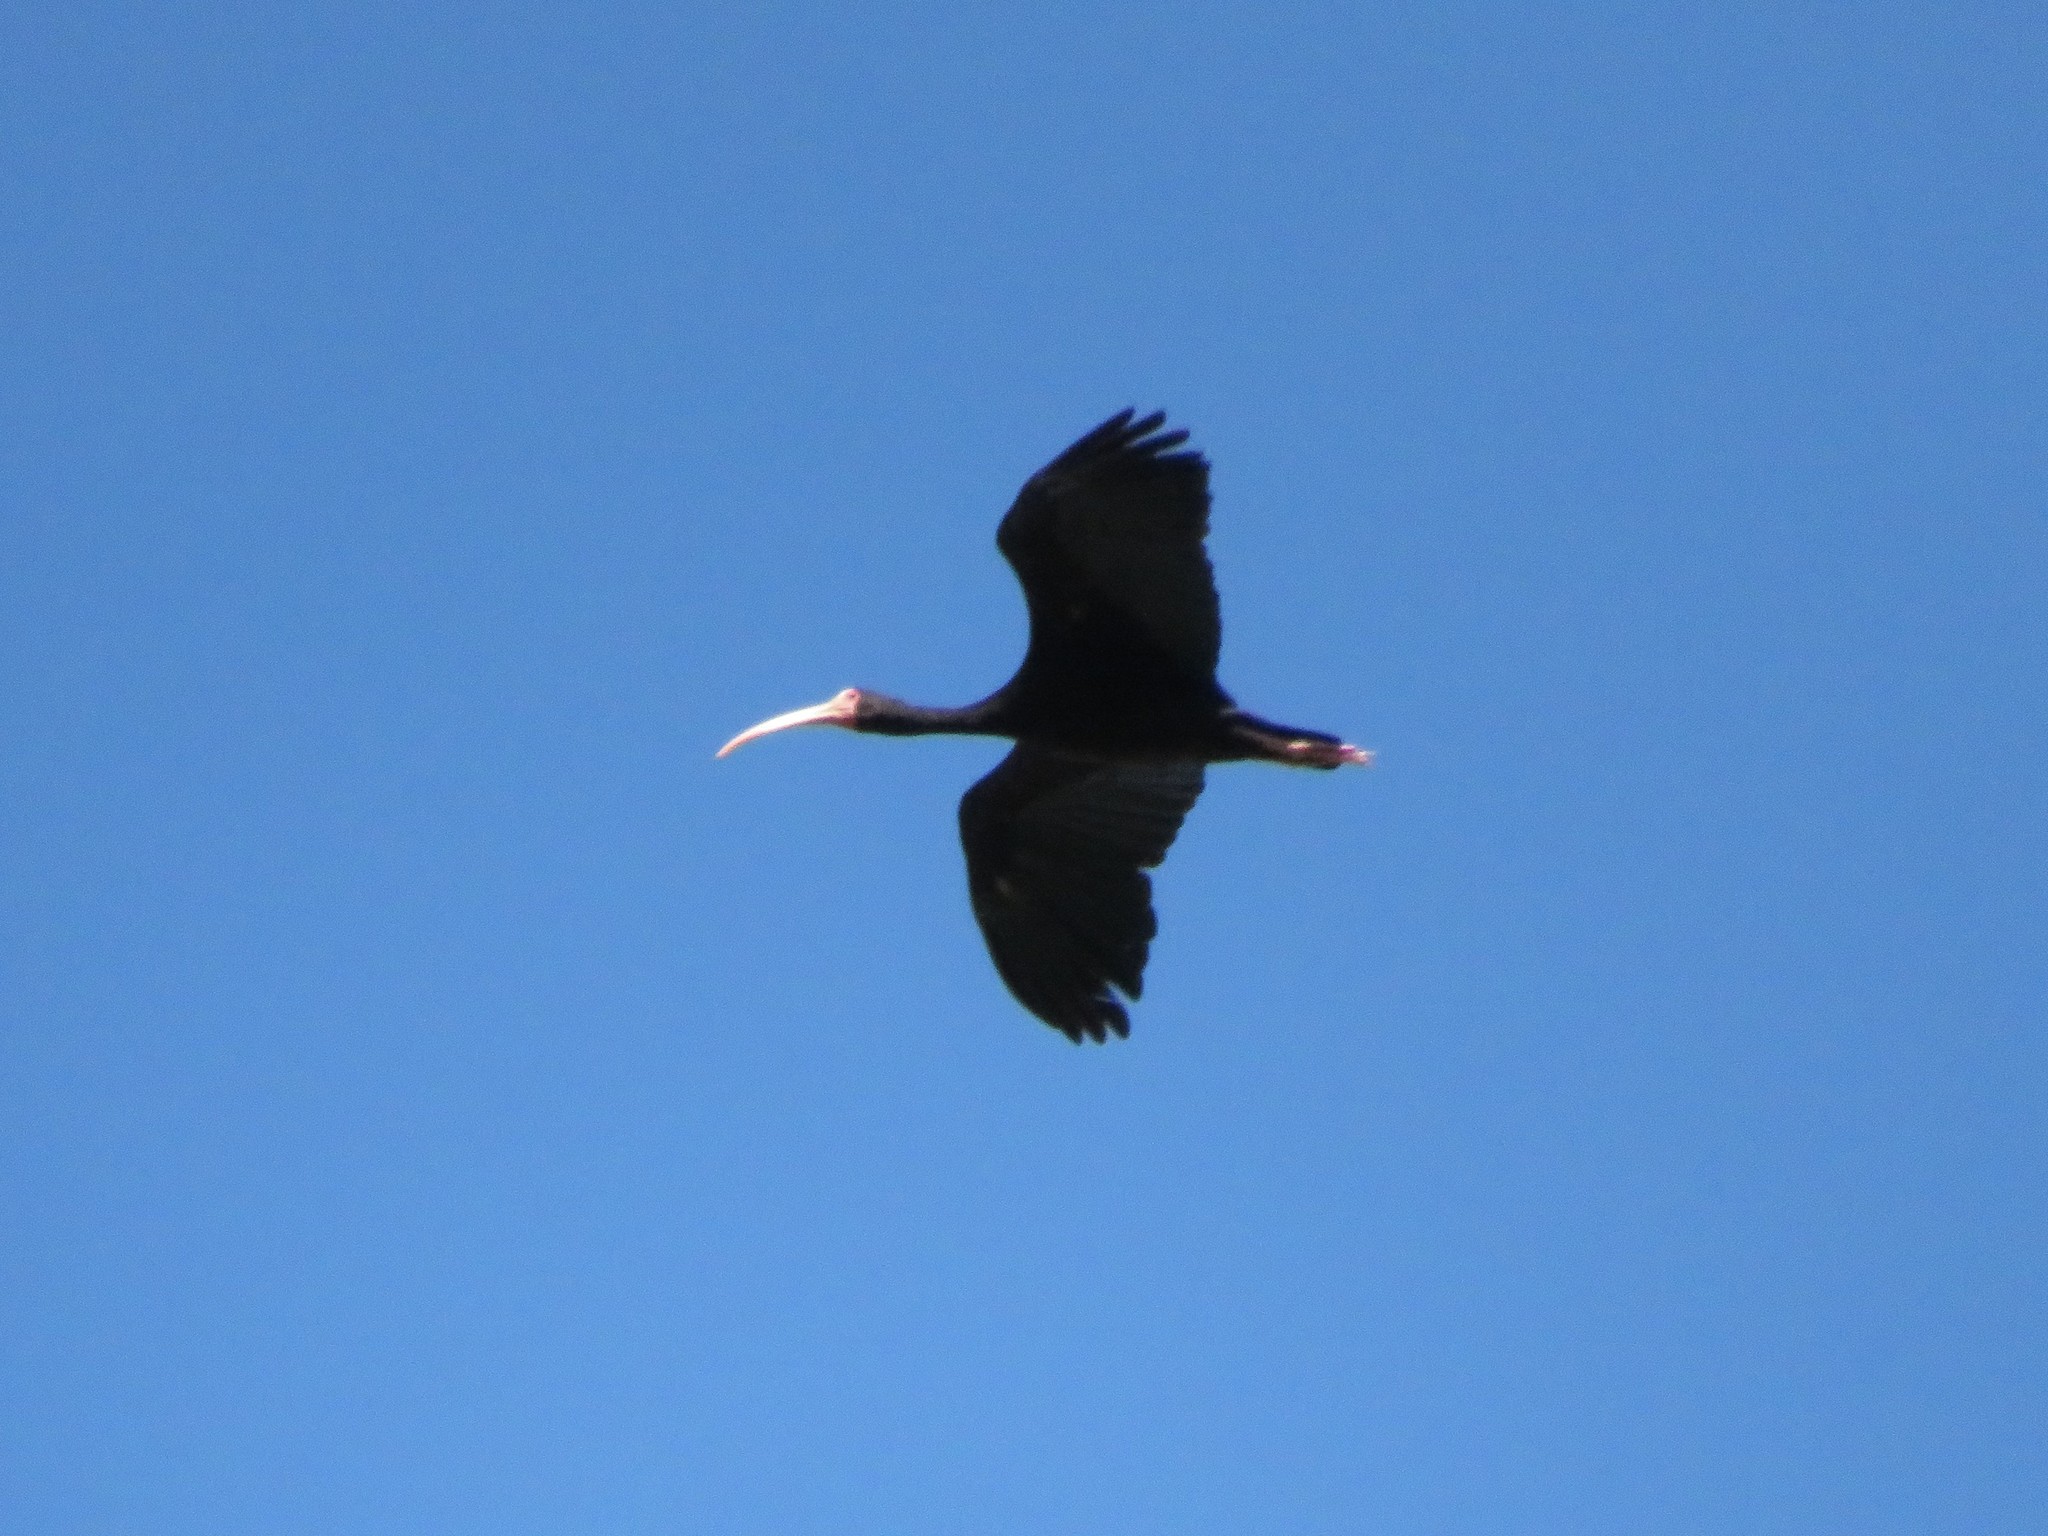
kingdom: Animalia
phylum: Chordata
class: Aves
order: Pelecaniformes
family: Threskiornithidae
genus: Phimosus
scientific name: Phimosus infuscatus
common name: Bare-faced ibis
